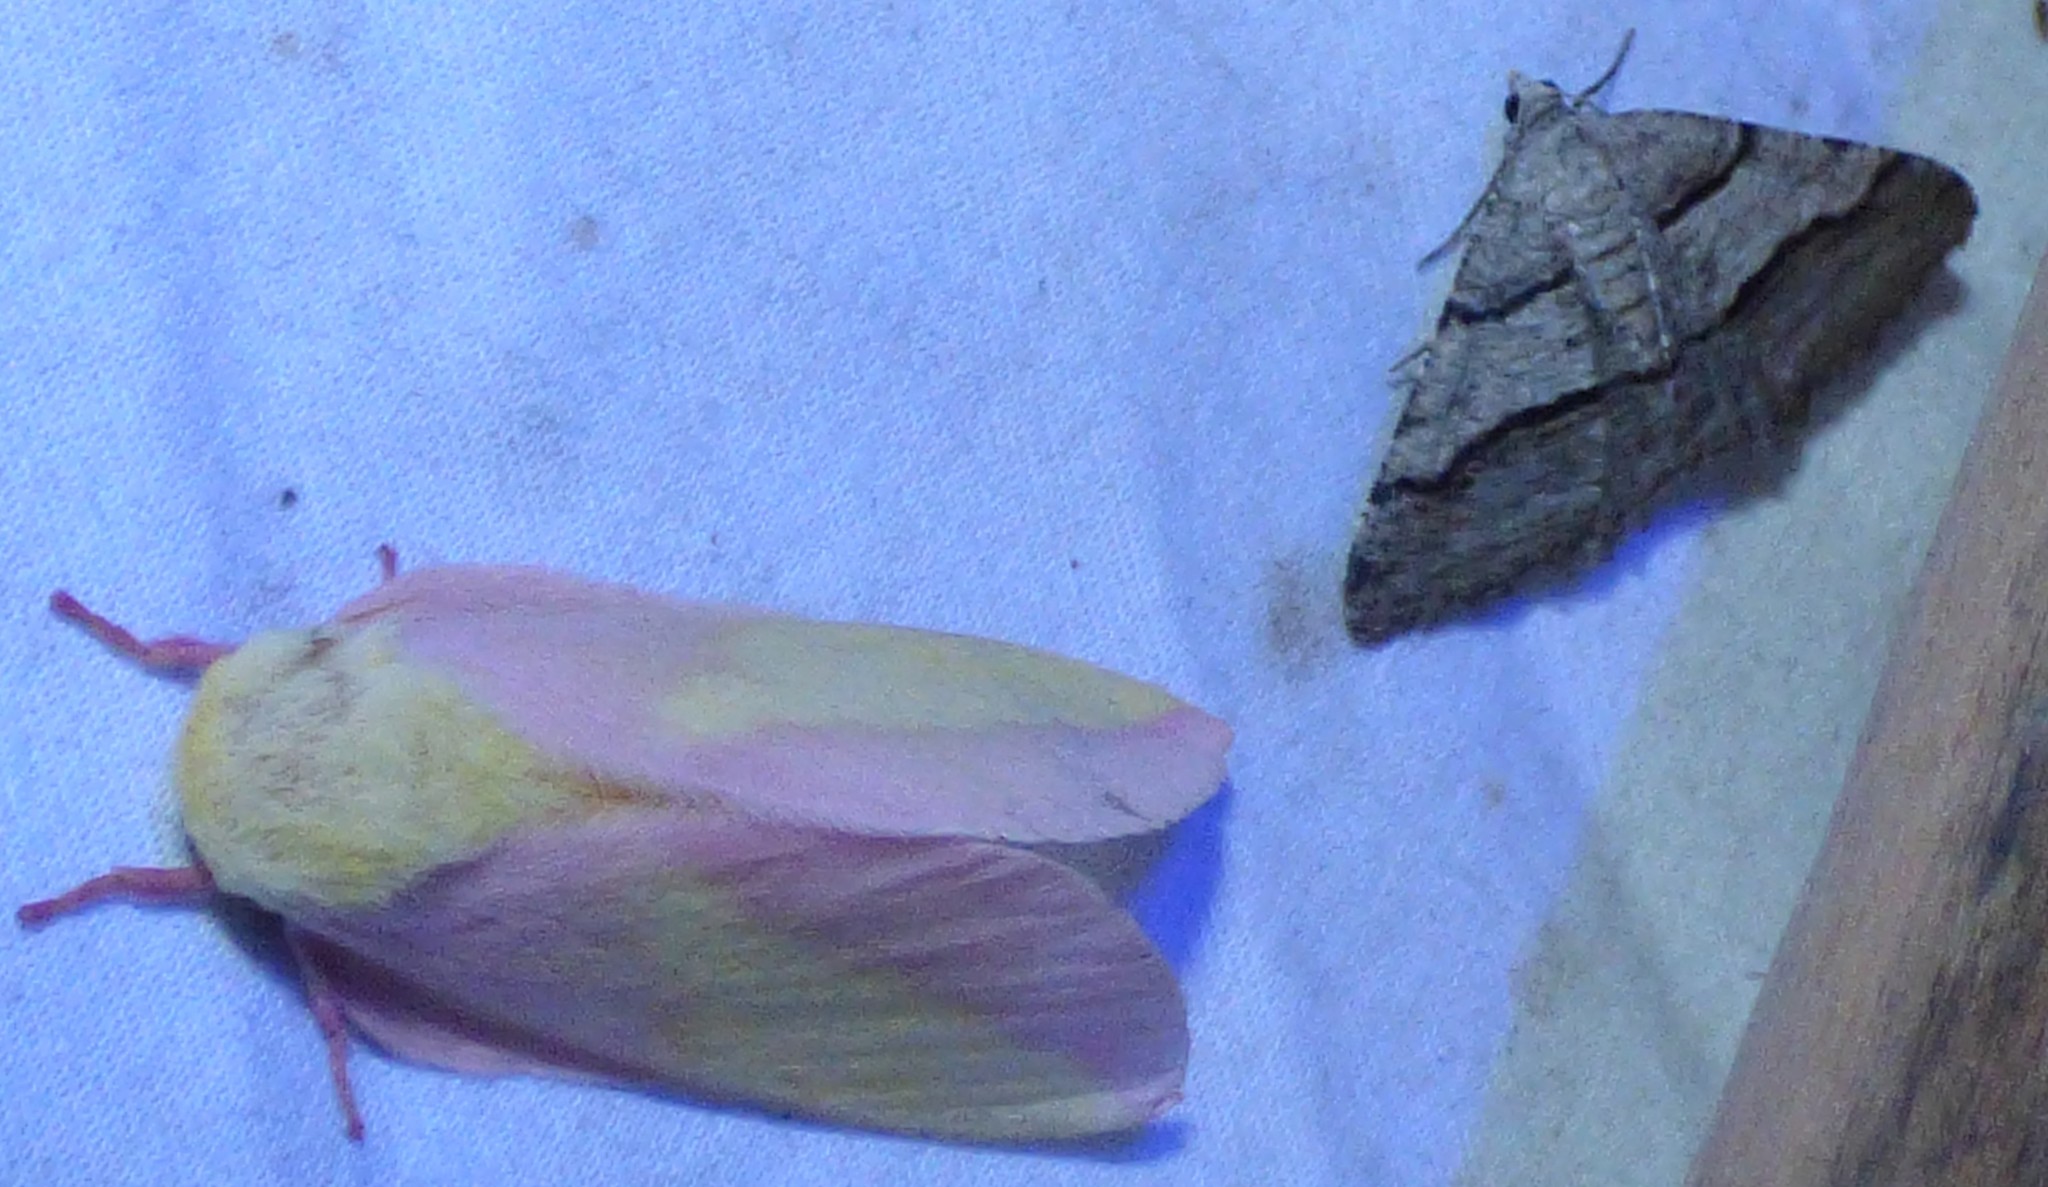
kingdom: Animalia
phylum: Arthropoda
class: Insecta
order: Lepidoptera
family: Geometridae
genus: Digrammia
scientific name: Digrammia continuata
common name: Curve-lined angle
